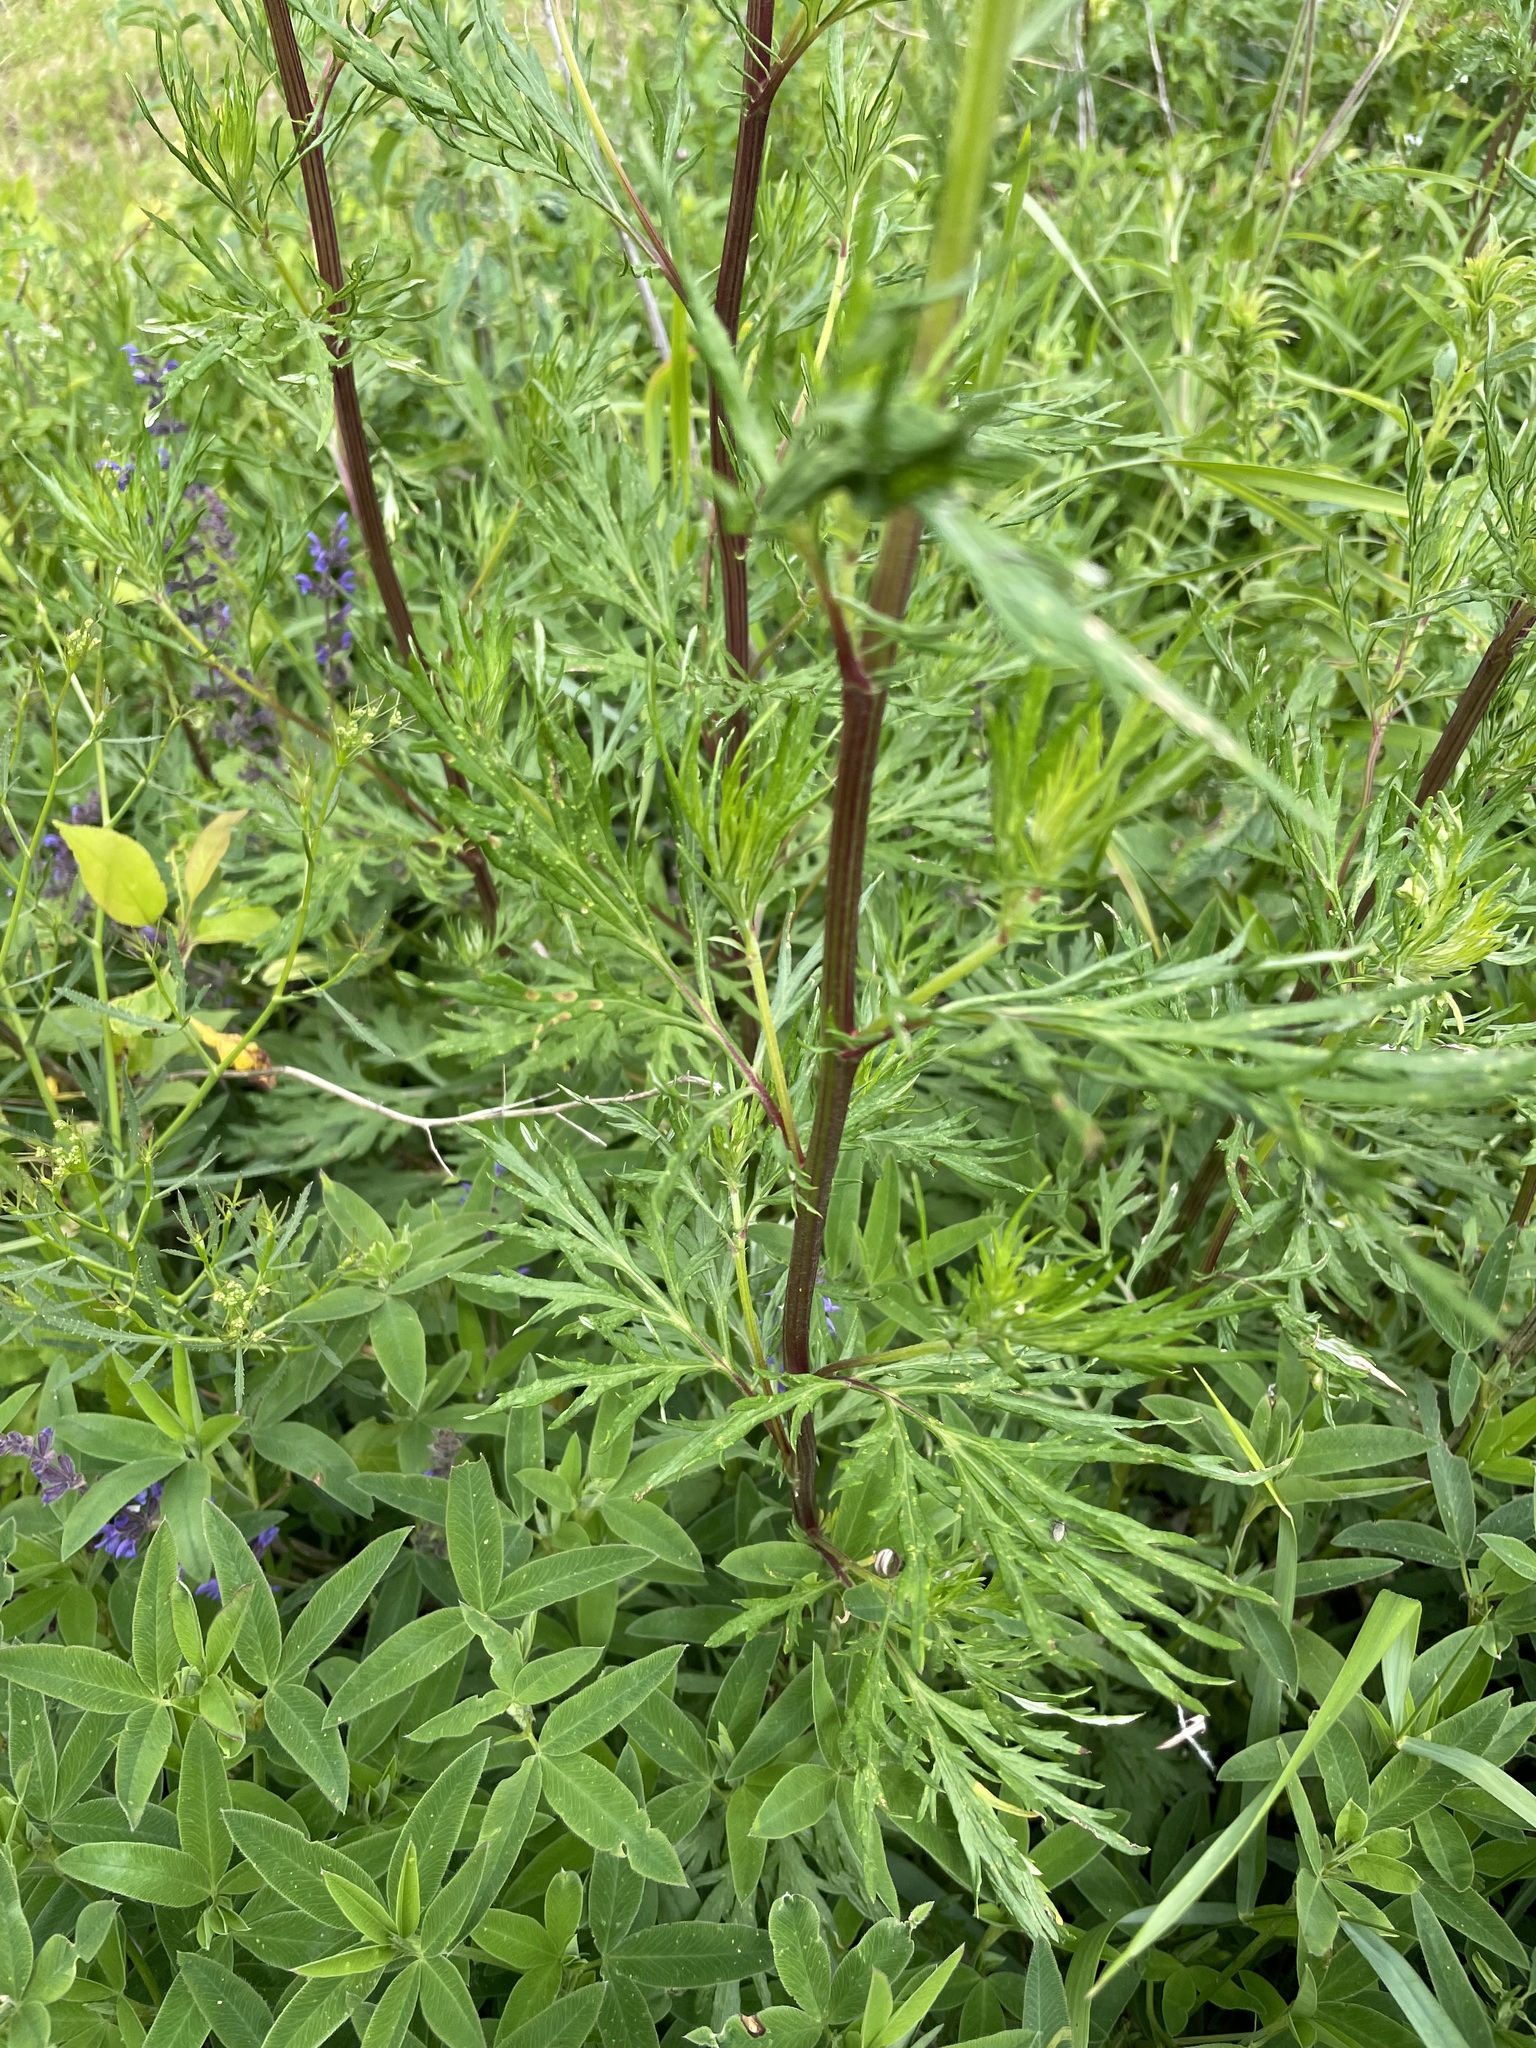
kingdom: Plantae
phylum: Tracheophyta
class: Magnoliopsida
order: Asterales
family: Asteraceae
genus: Artemisia
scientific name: Artemisia vulgaris
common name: Mugwort
